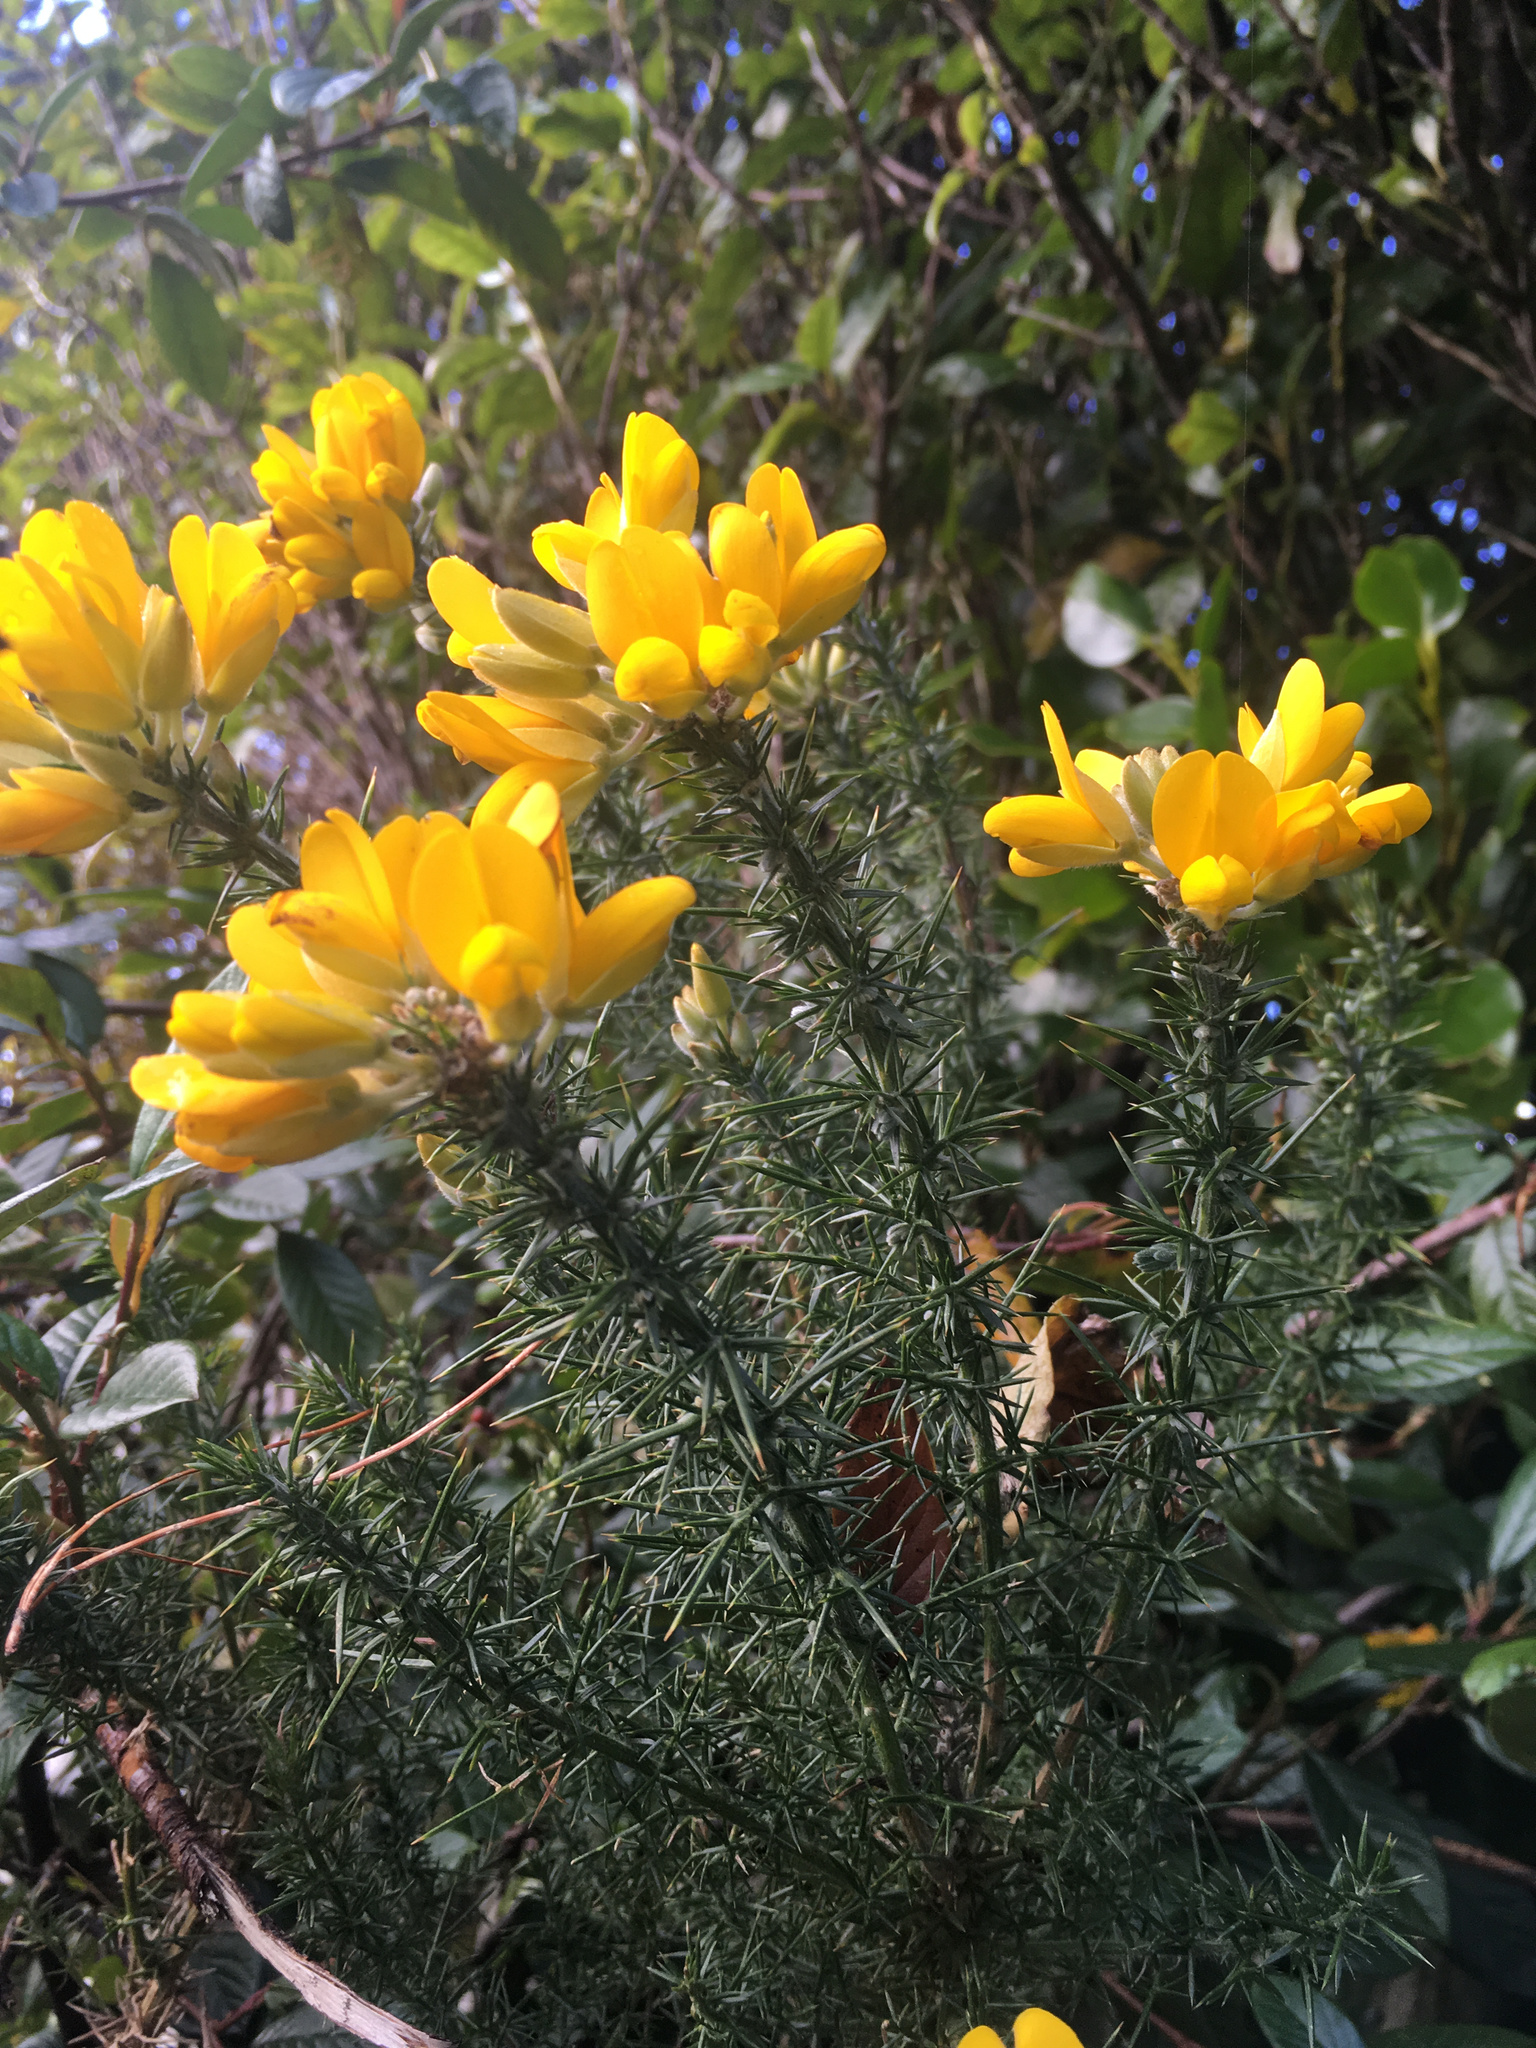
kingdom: Plantae
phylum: Tracheophyta
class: Magnoliopsida
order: Fabales
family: Fabaceae
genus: Ulex
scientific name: Ulex europaeus
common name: Common gorse
